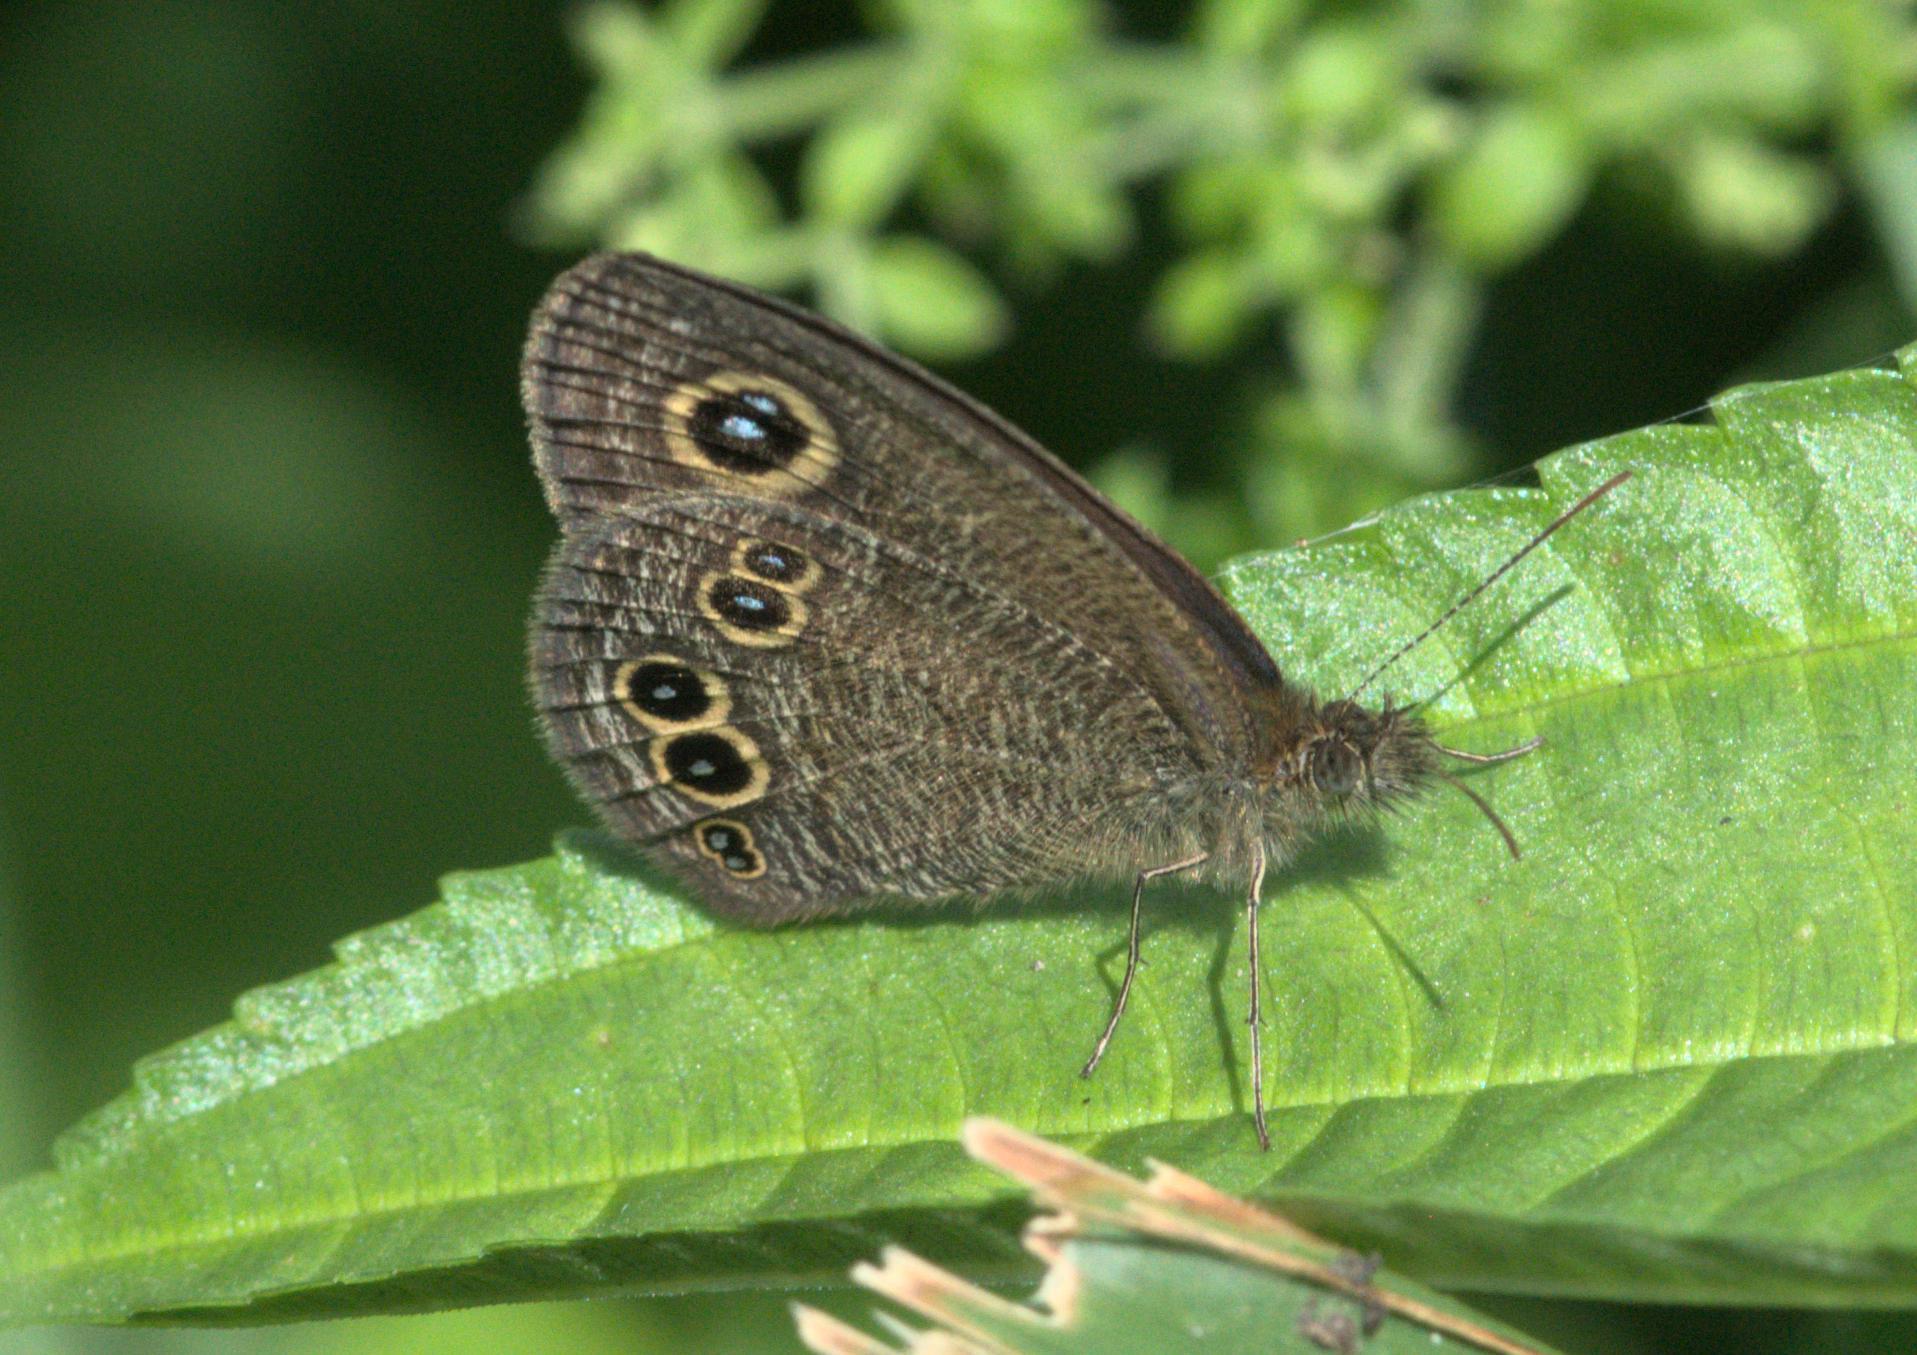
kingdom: Animalia
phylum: Arthropoda
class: Insecta
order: Lepidoptera
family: Nymphalidae
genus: Ypthima
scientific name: Ypthima nikaea
